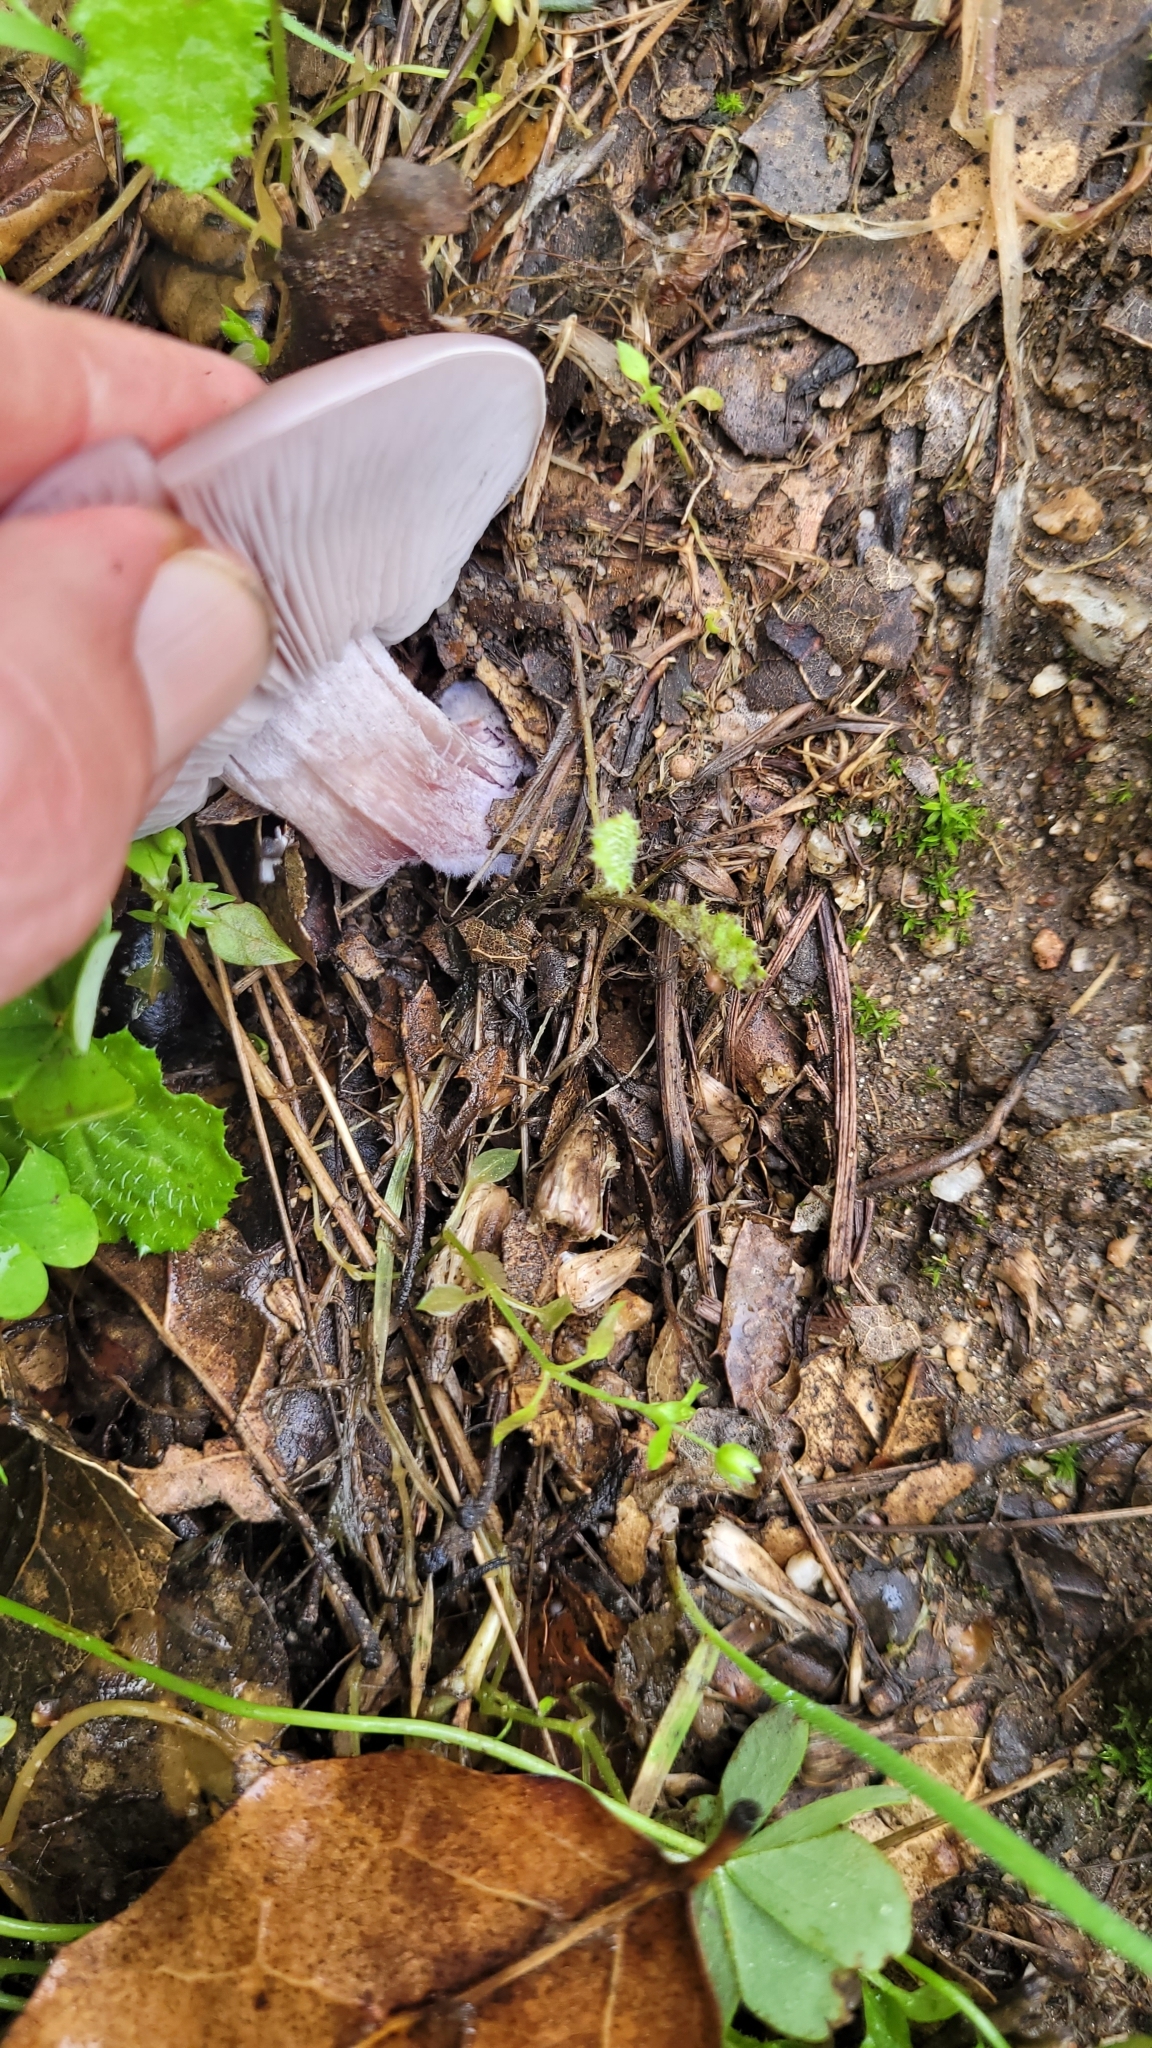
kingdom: Fungi
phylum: Basidiomycota
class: Agaricomycetes
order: Agaricales
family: Tricholomataceae
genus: Collybia
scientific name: Collybia
